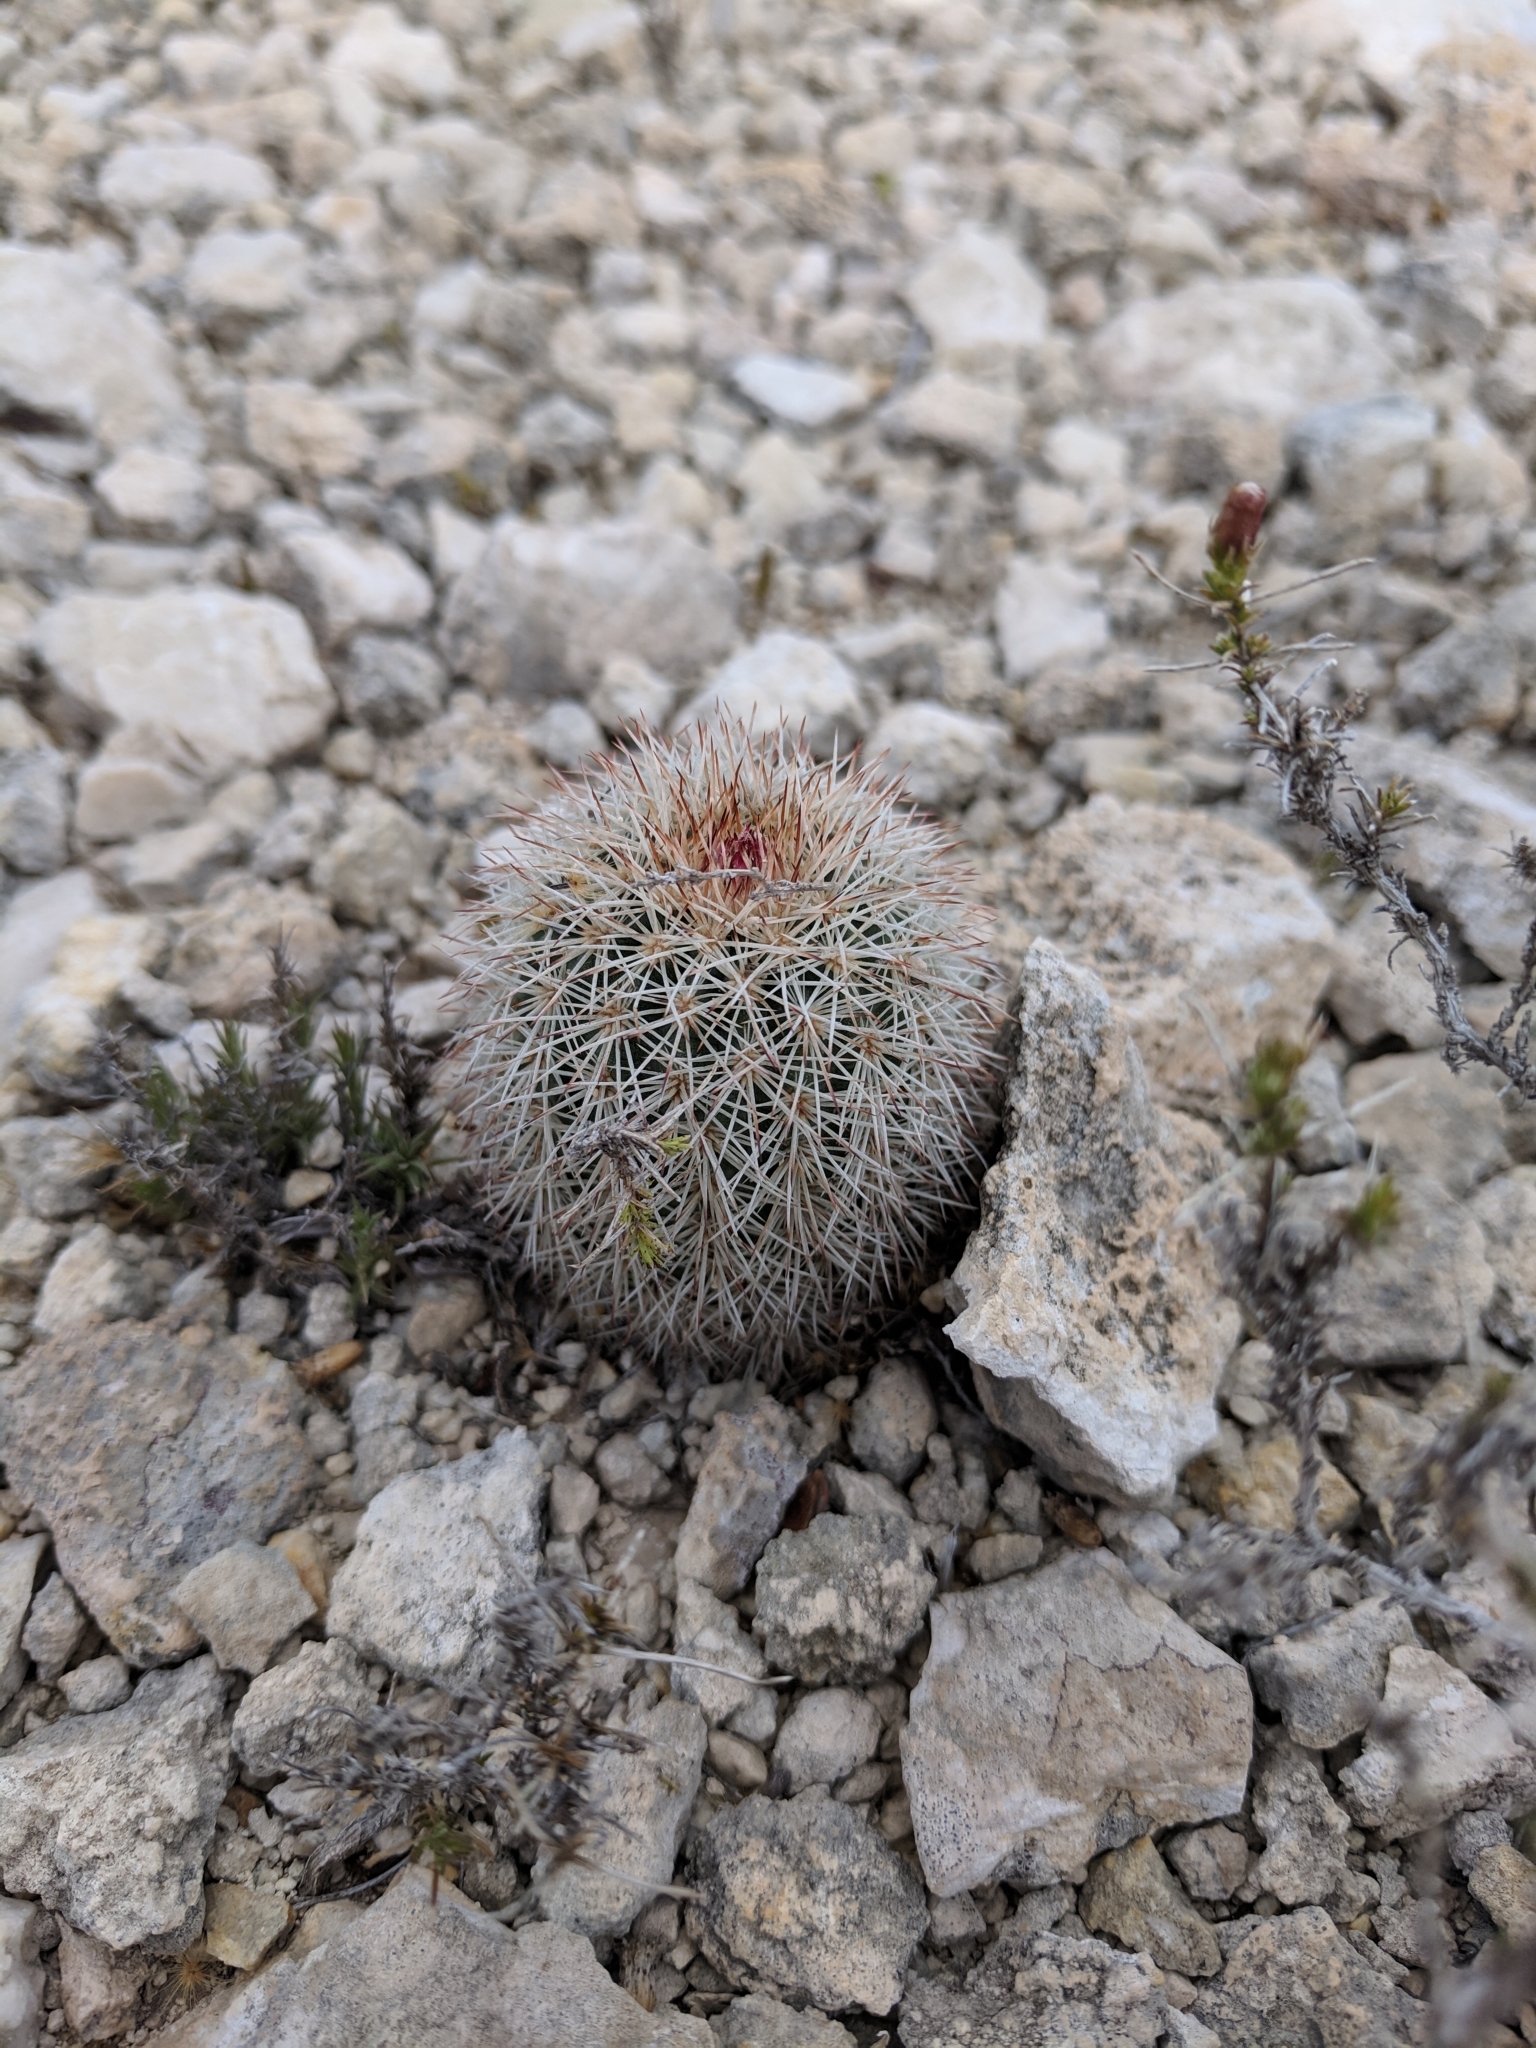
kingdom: Plantae
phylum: Tracheophyta
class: Magnoliopsida
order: Caryophyllales
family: Cactaceae
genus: Echinocereus
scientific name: Echinocereus dasyacanthus
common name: Spiny hedgehog cactus
